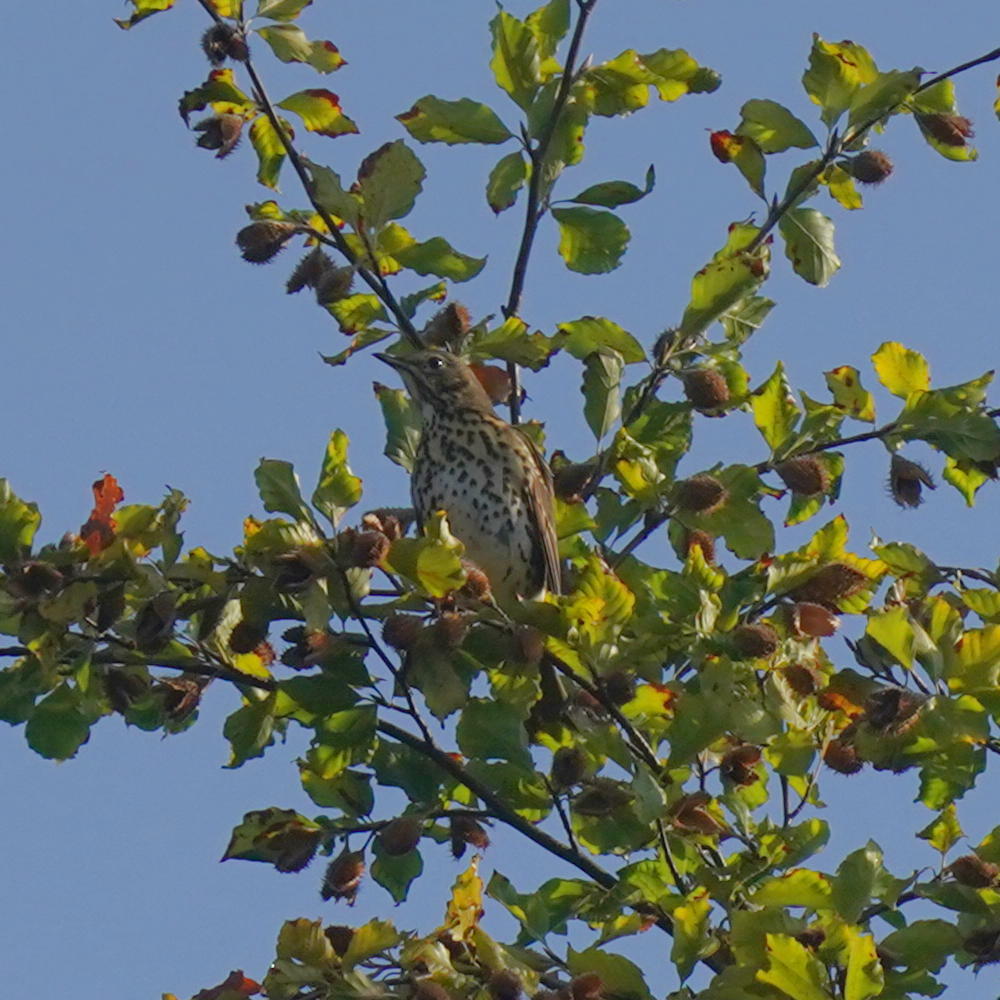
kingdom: Animalia
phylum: Chordata
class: Aves
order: Passeriformes
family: Turdidae
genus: Turdus
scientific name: Turdus philomelos
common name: Song thrush
